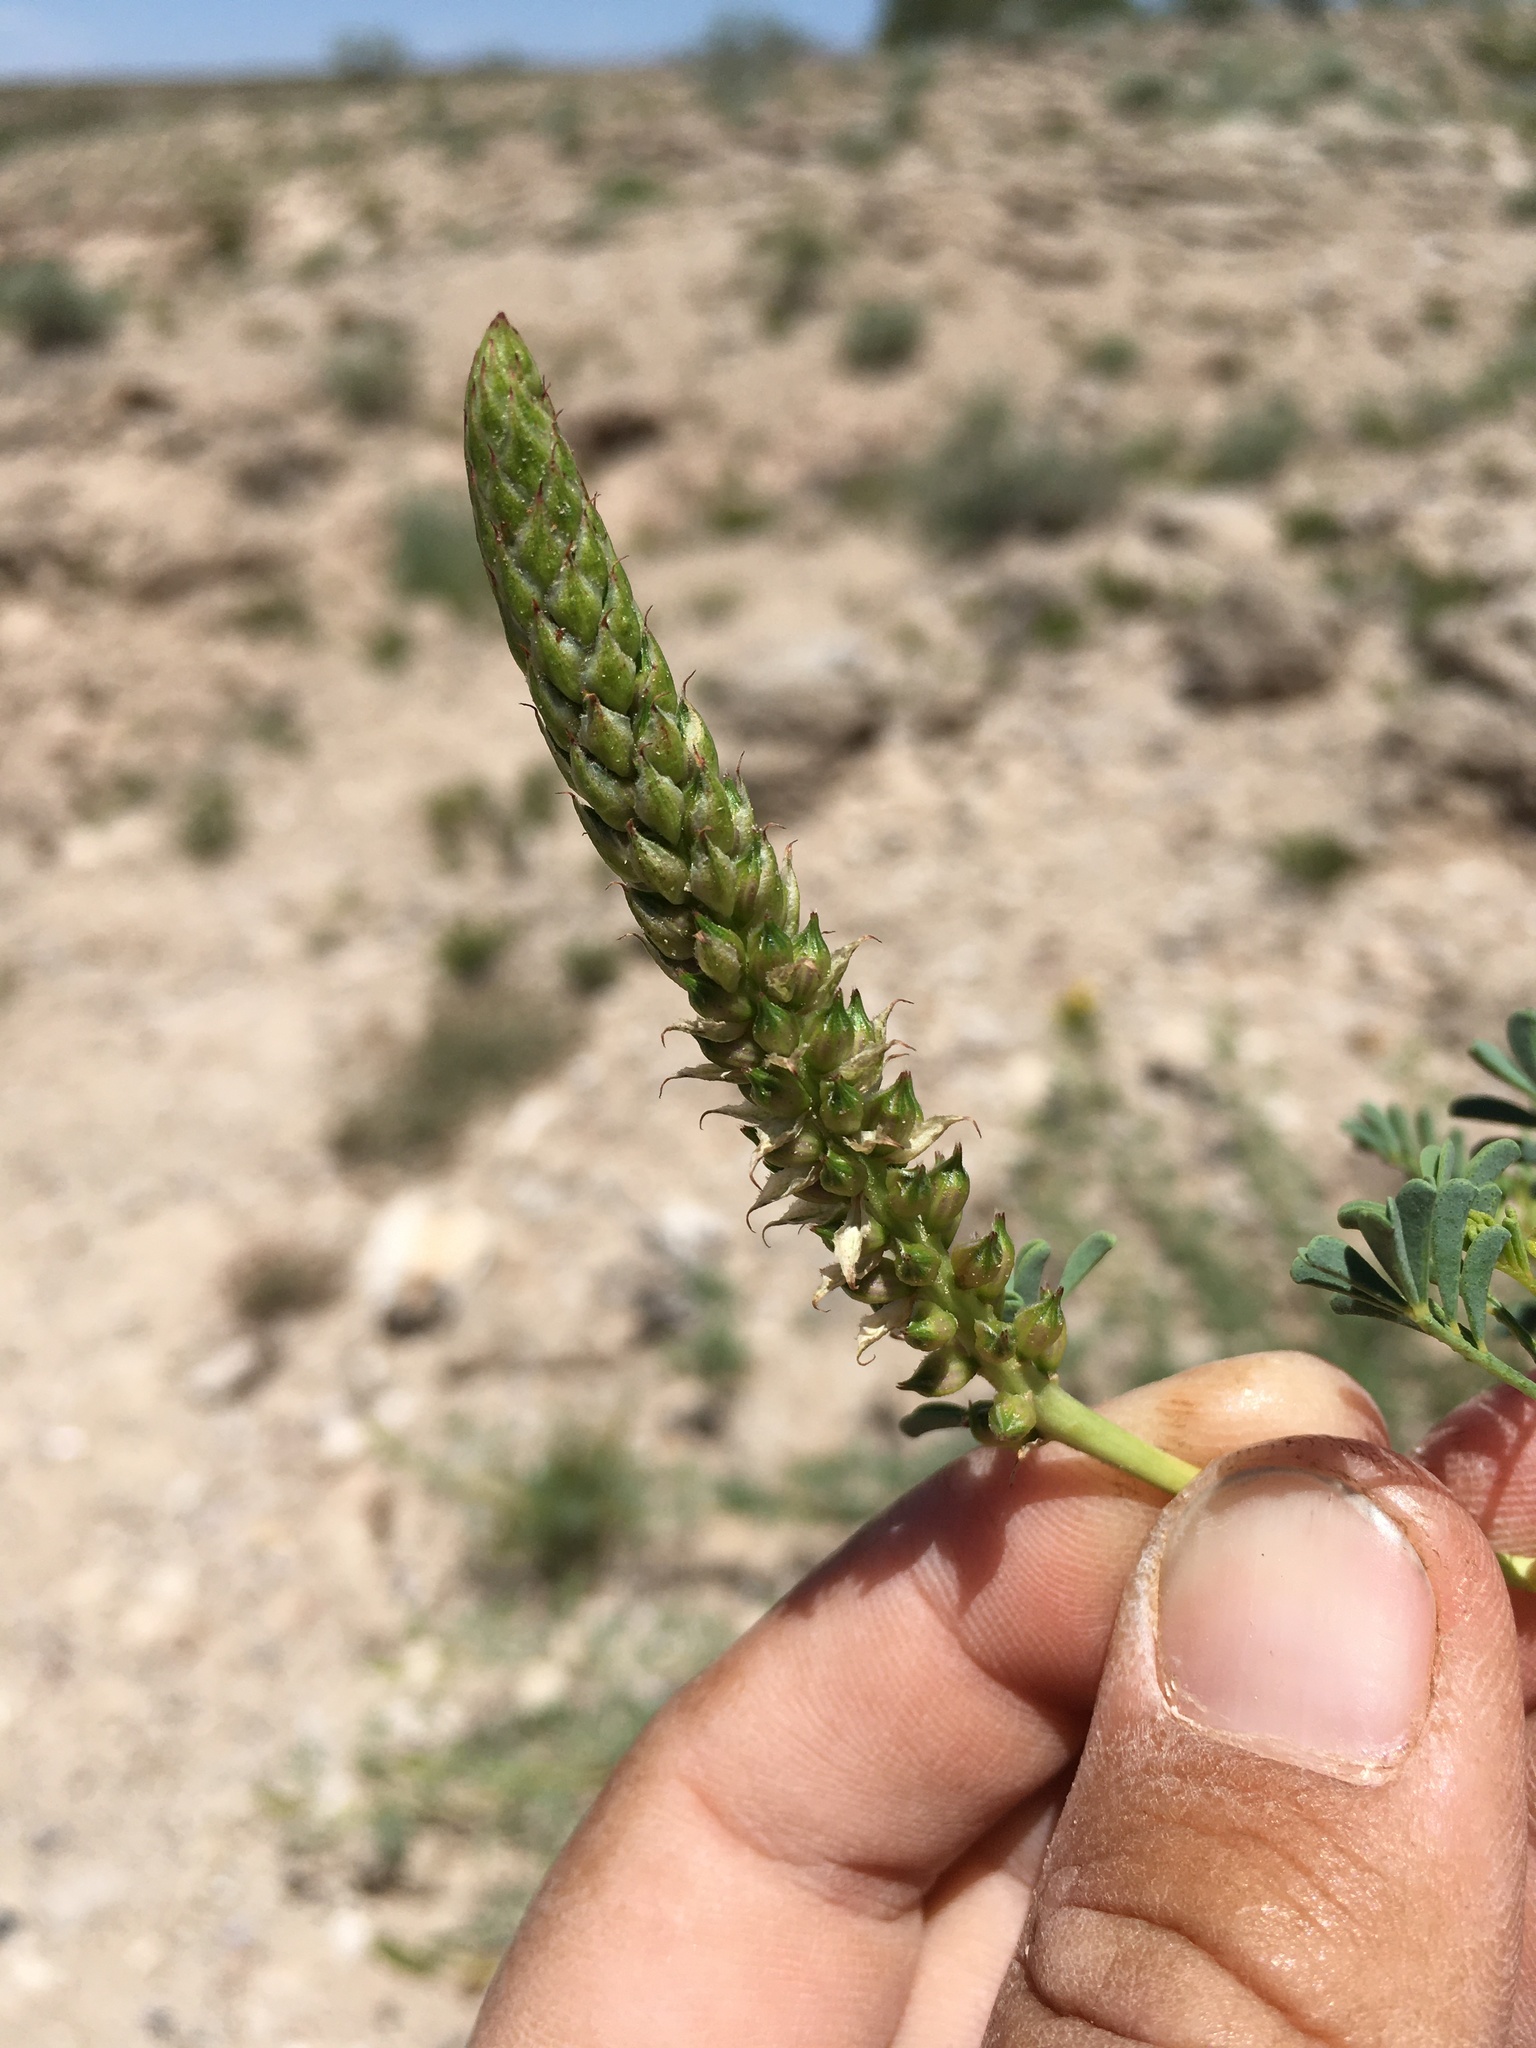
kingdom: Plantae
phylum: Tracheophyta
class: Magnoliopsida
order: Fabales
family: Fabaceae
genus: Dalea
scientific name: Dalea scariosa
